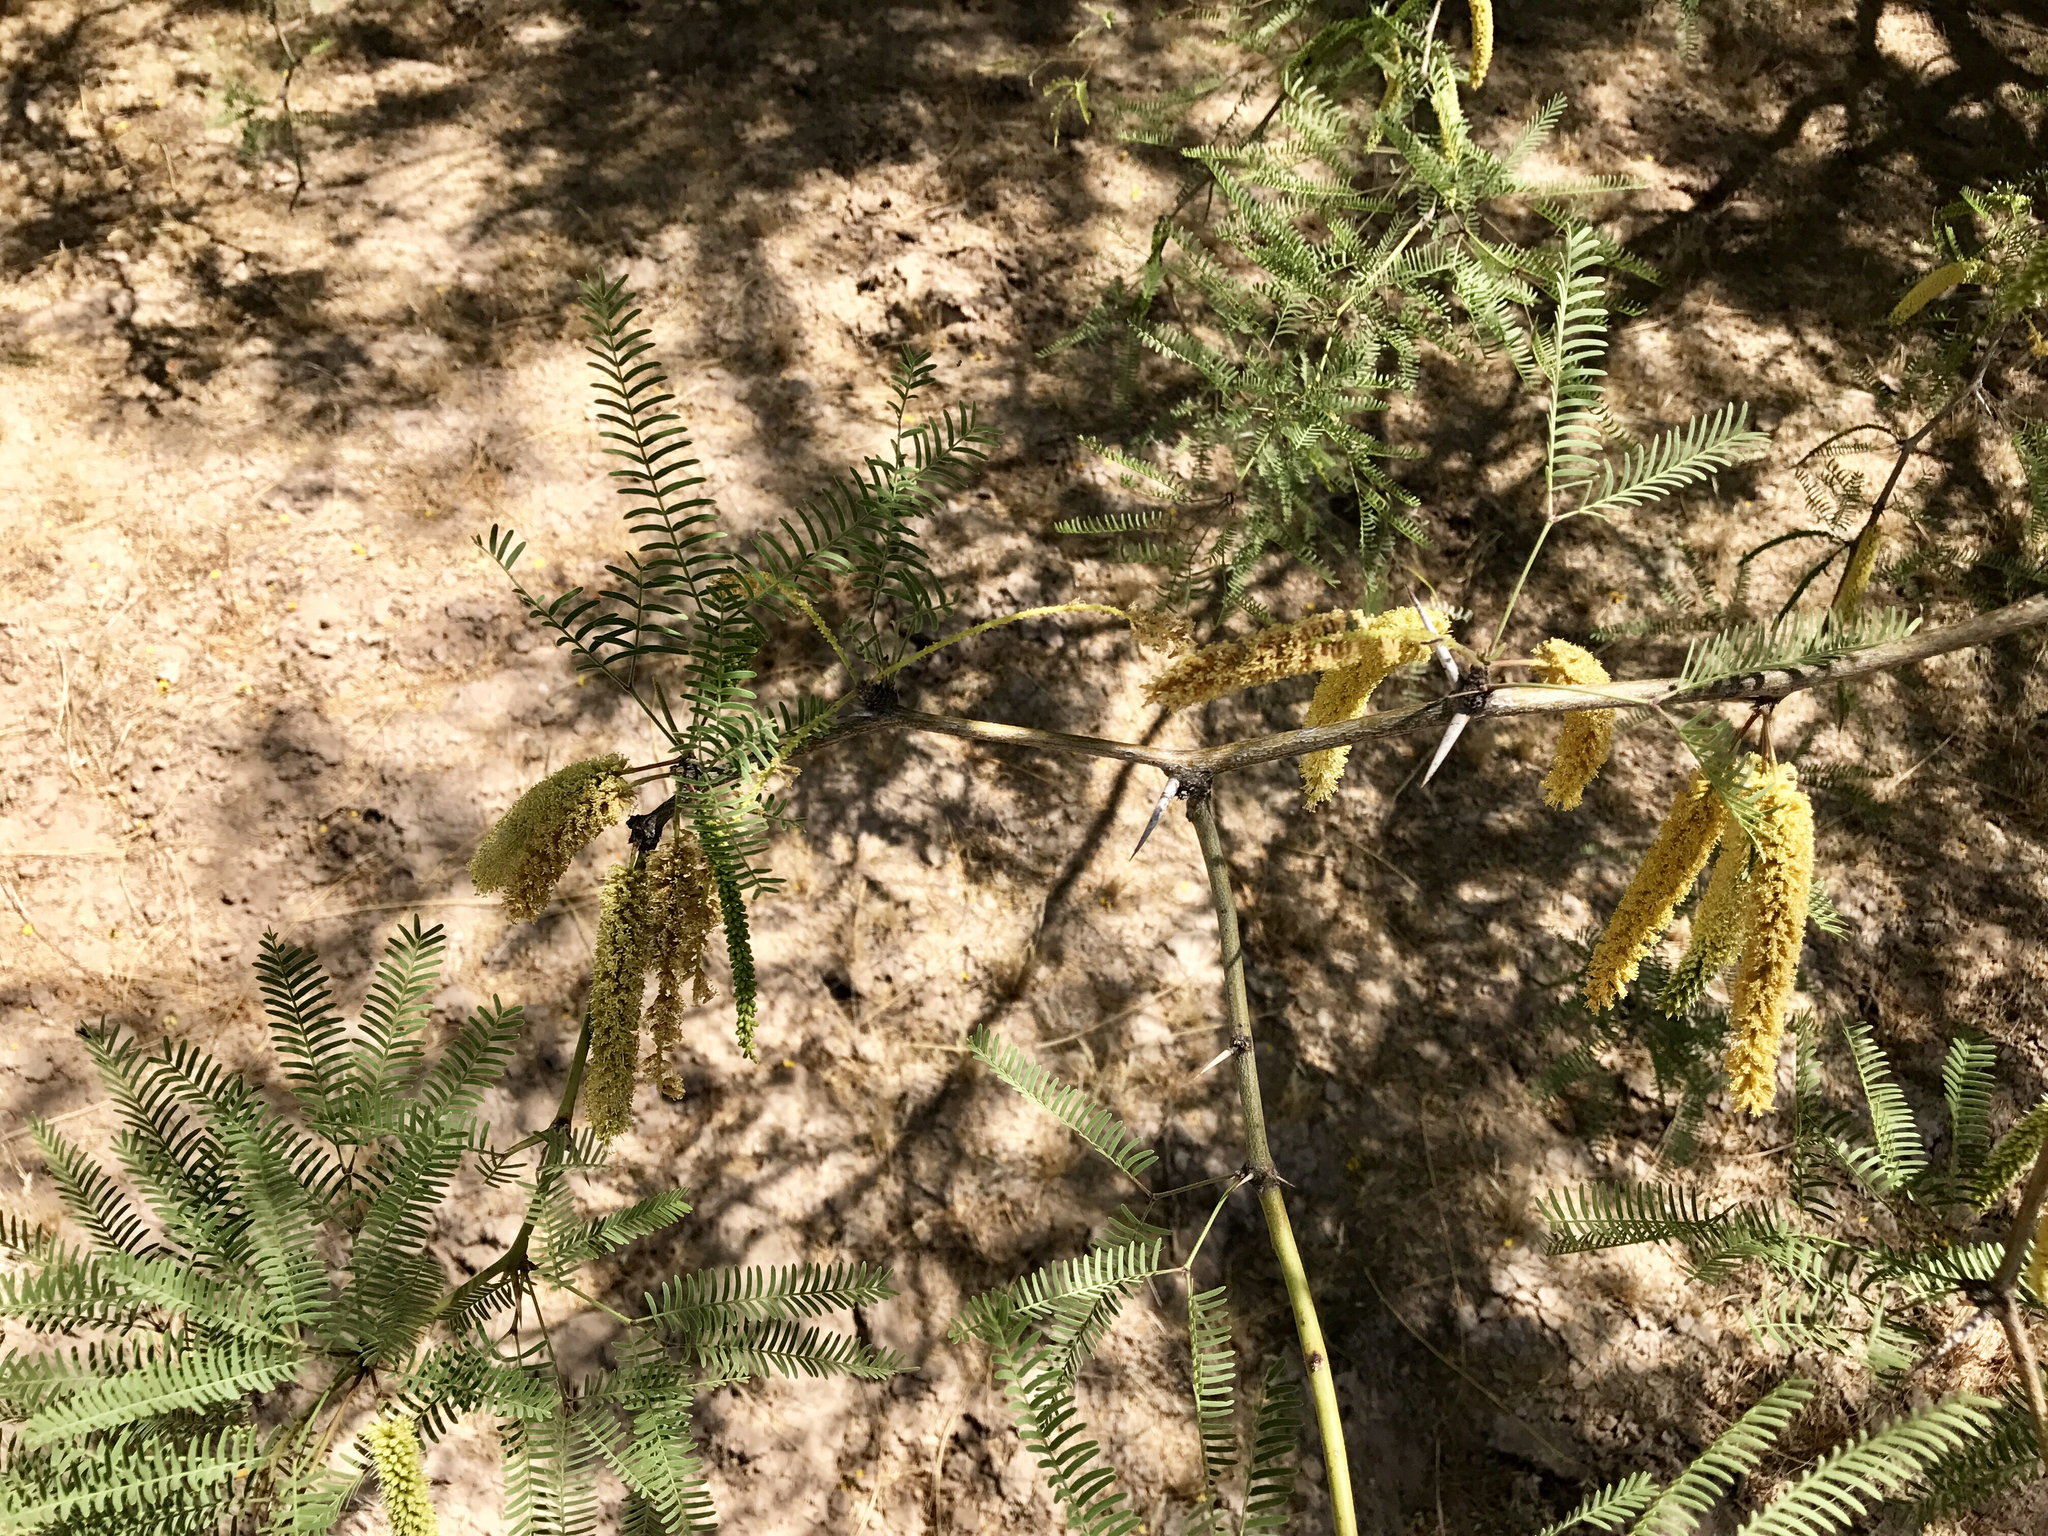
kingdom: Plantae
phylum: Tracheophyta
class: Magnoliopsida
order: Fabales
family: Fabaceae
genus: Prosopis
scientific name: Prosopis glandulosa
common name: Honey mesquite
